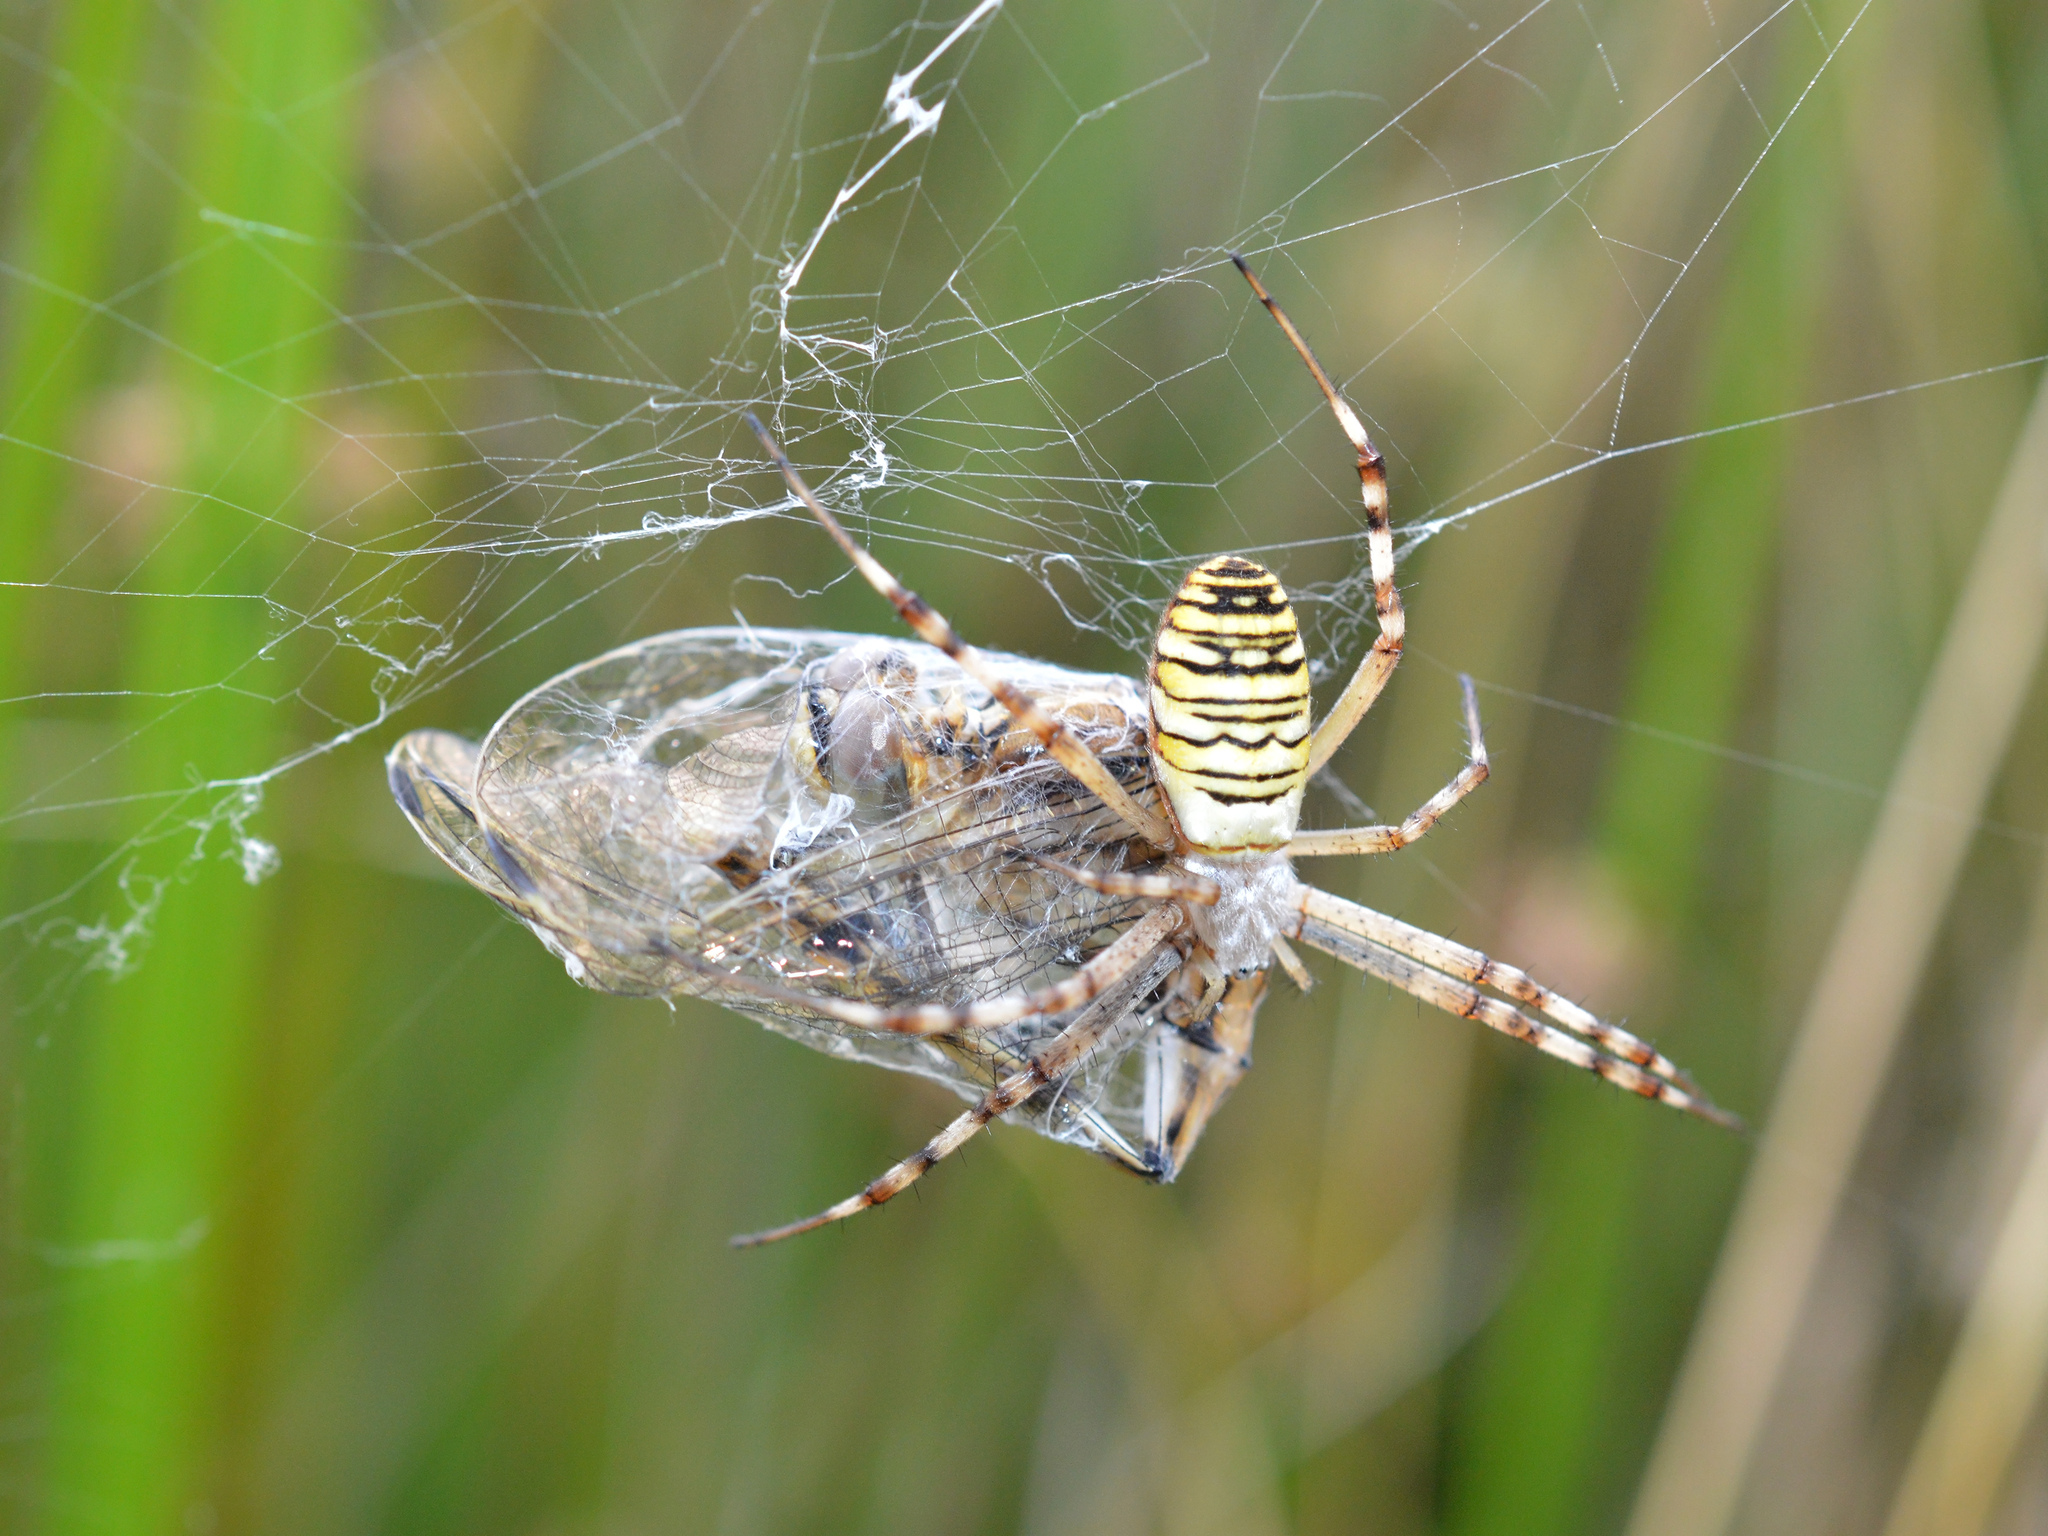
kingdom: Animalia
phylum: Arthropoda
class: Arachnida
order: Araneae
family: Araneidae
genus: Argiope
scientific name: Argiope bruennichi
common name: Wasp spider
